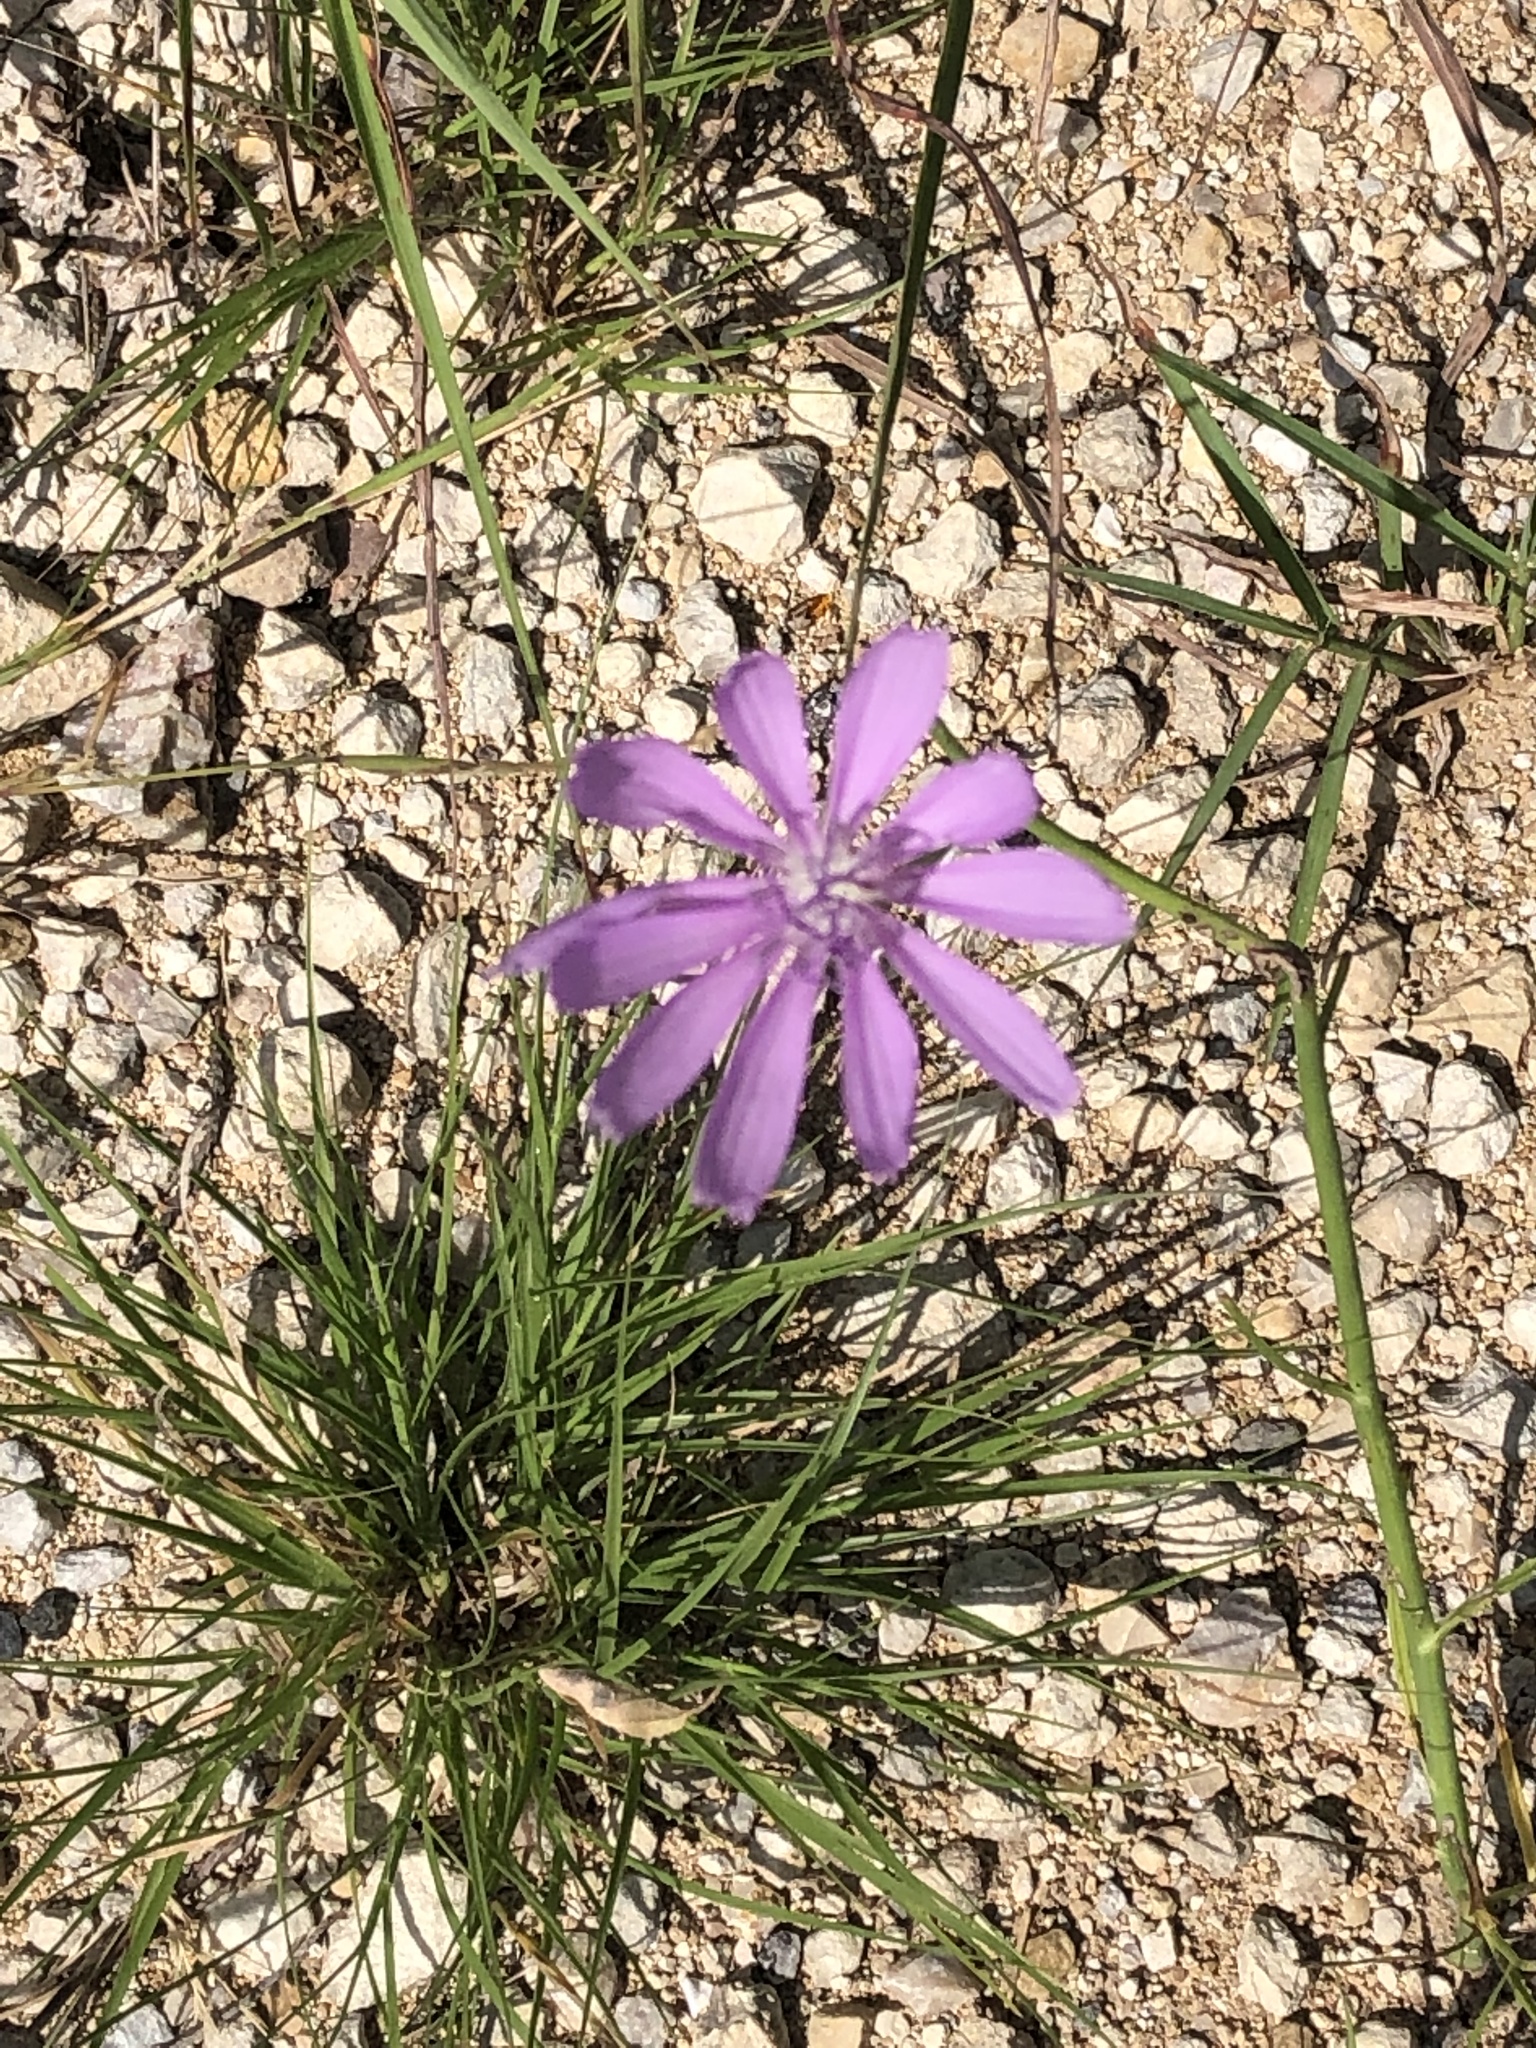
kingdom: Plantae
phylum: Tracheophyta
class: Magnoliopsida
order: Asterales
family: Asteraceae
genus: Lygodesmia
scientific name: Lygodesmia texana
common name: Texas skeleton-plant
